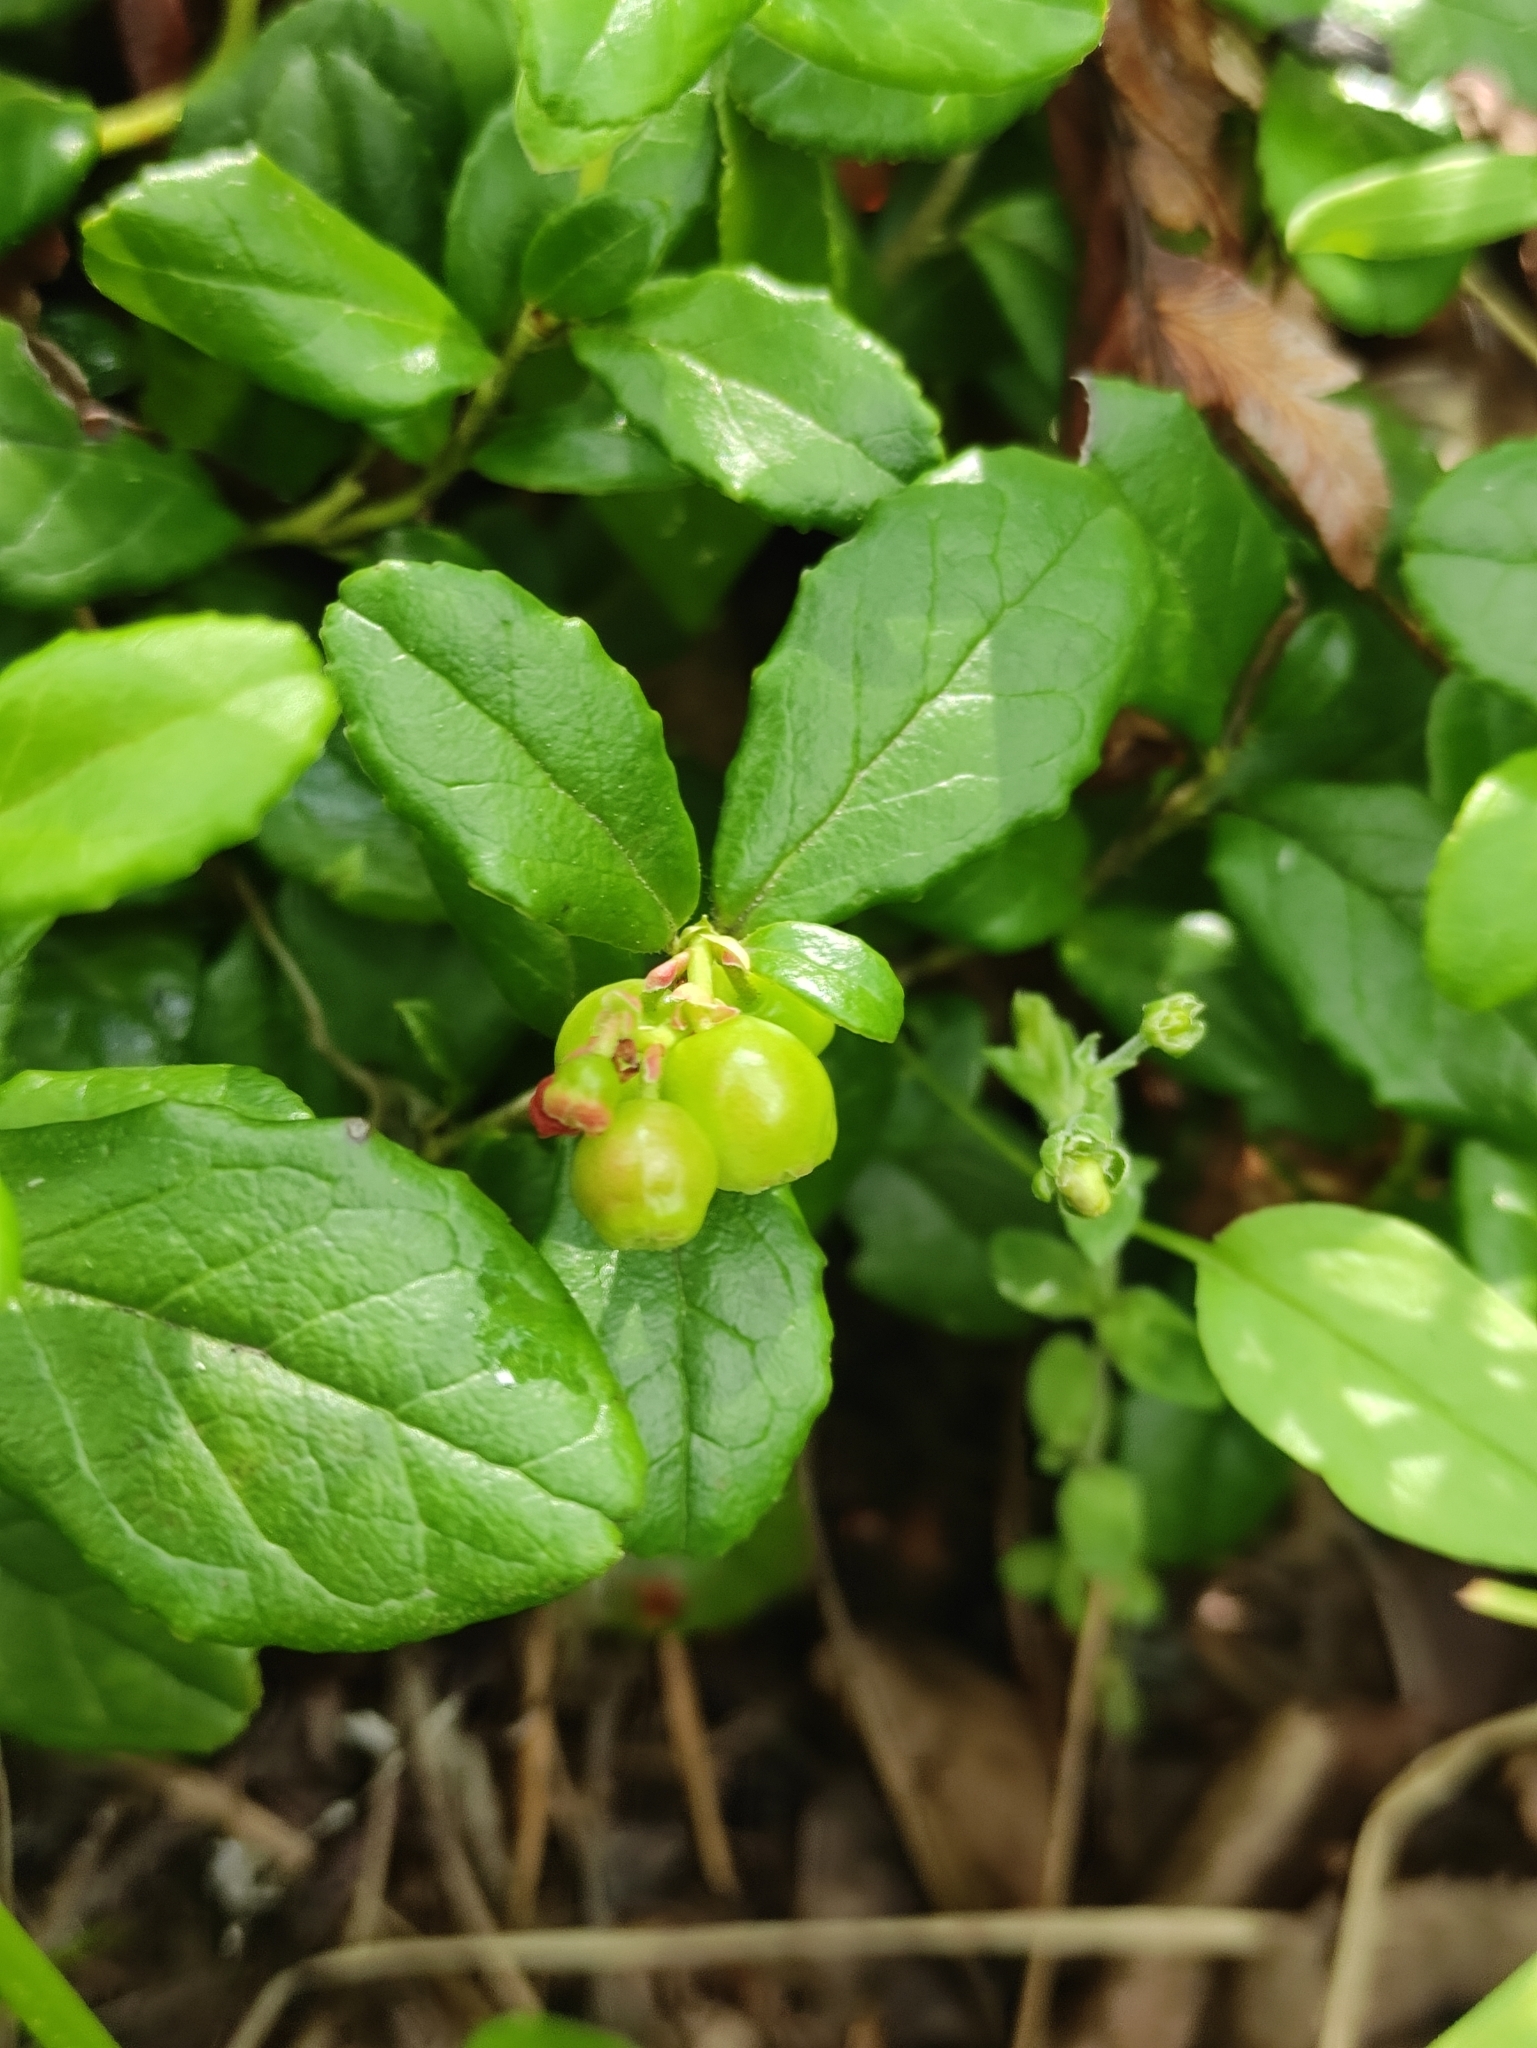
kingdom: Plantae
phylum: Tracheophyta
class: Magnoliopsida
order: Ericales
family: Ericaceae
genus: Vaccinium
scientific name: Vaccinium vitis-idaea
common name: Cowberry
